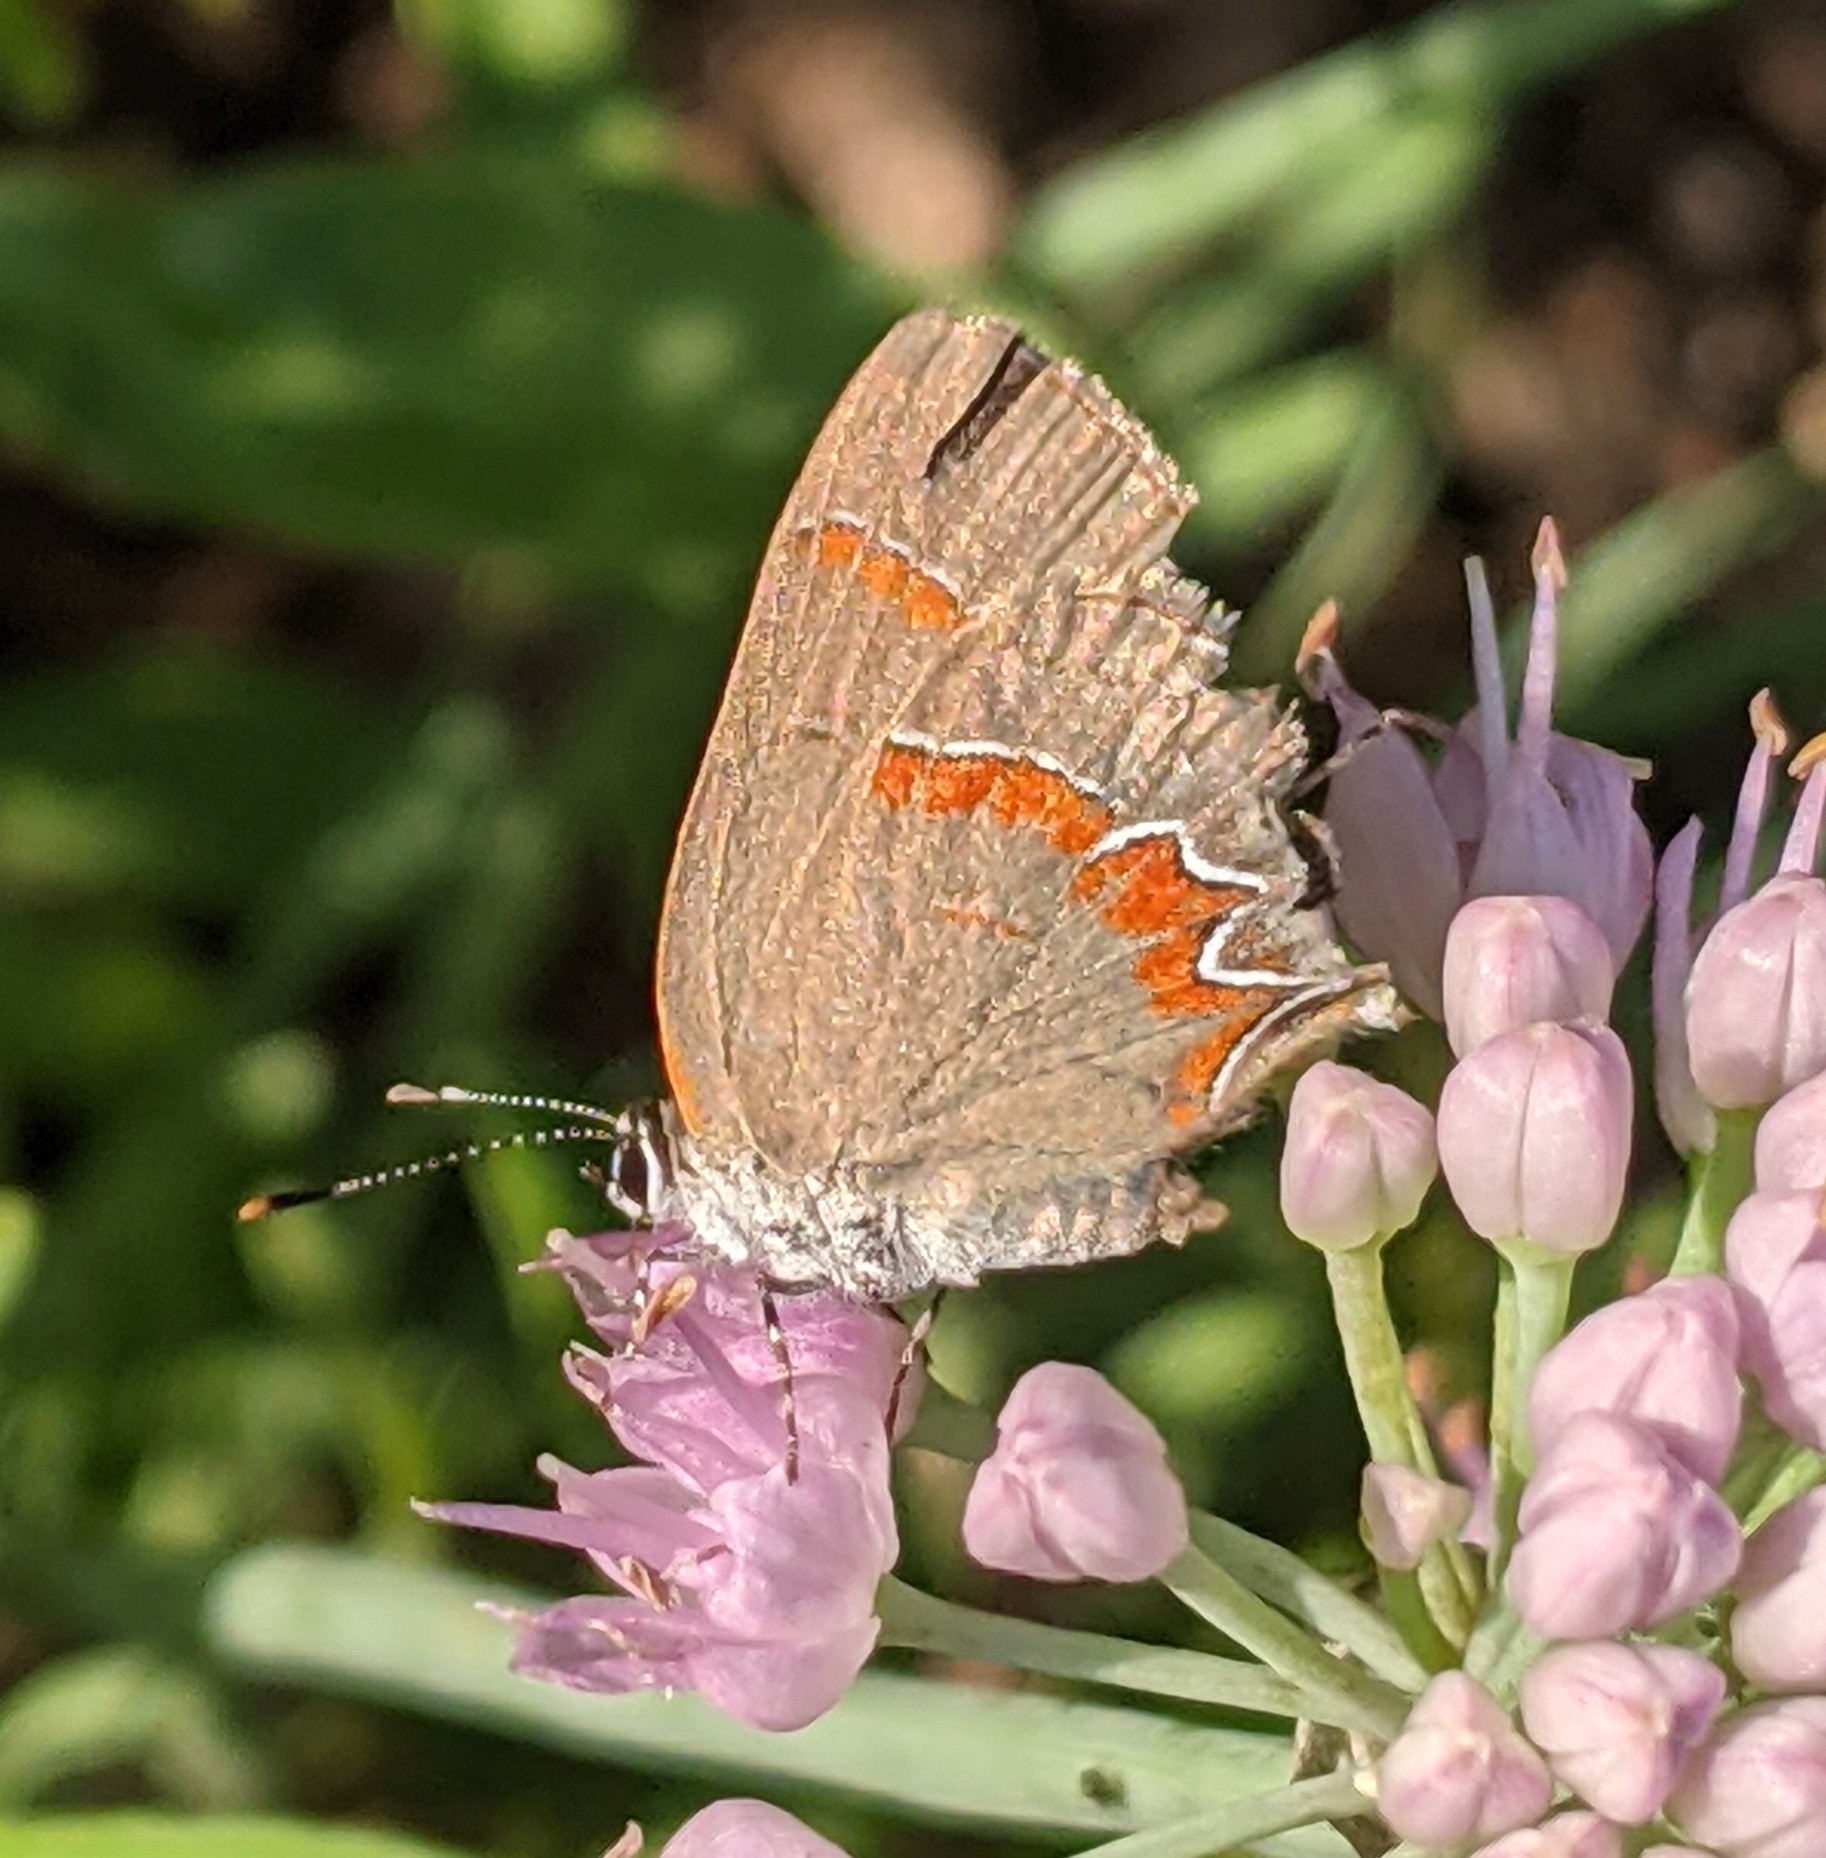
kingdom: Animalia
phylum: Arthropoda
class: Insecta
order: Lepidoptera
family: Lycaenidae
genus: Calycopis
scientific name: Calycopis cecrops
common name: Red-banded hairstreak
